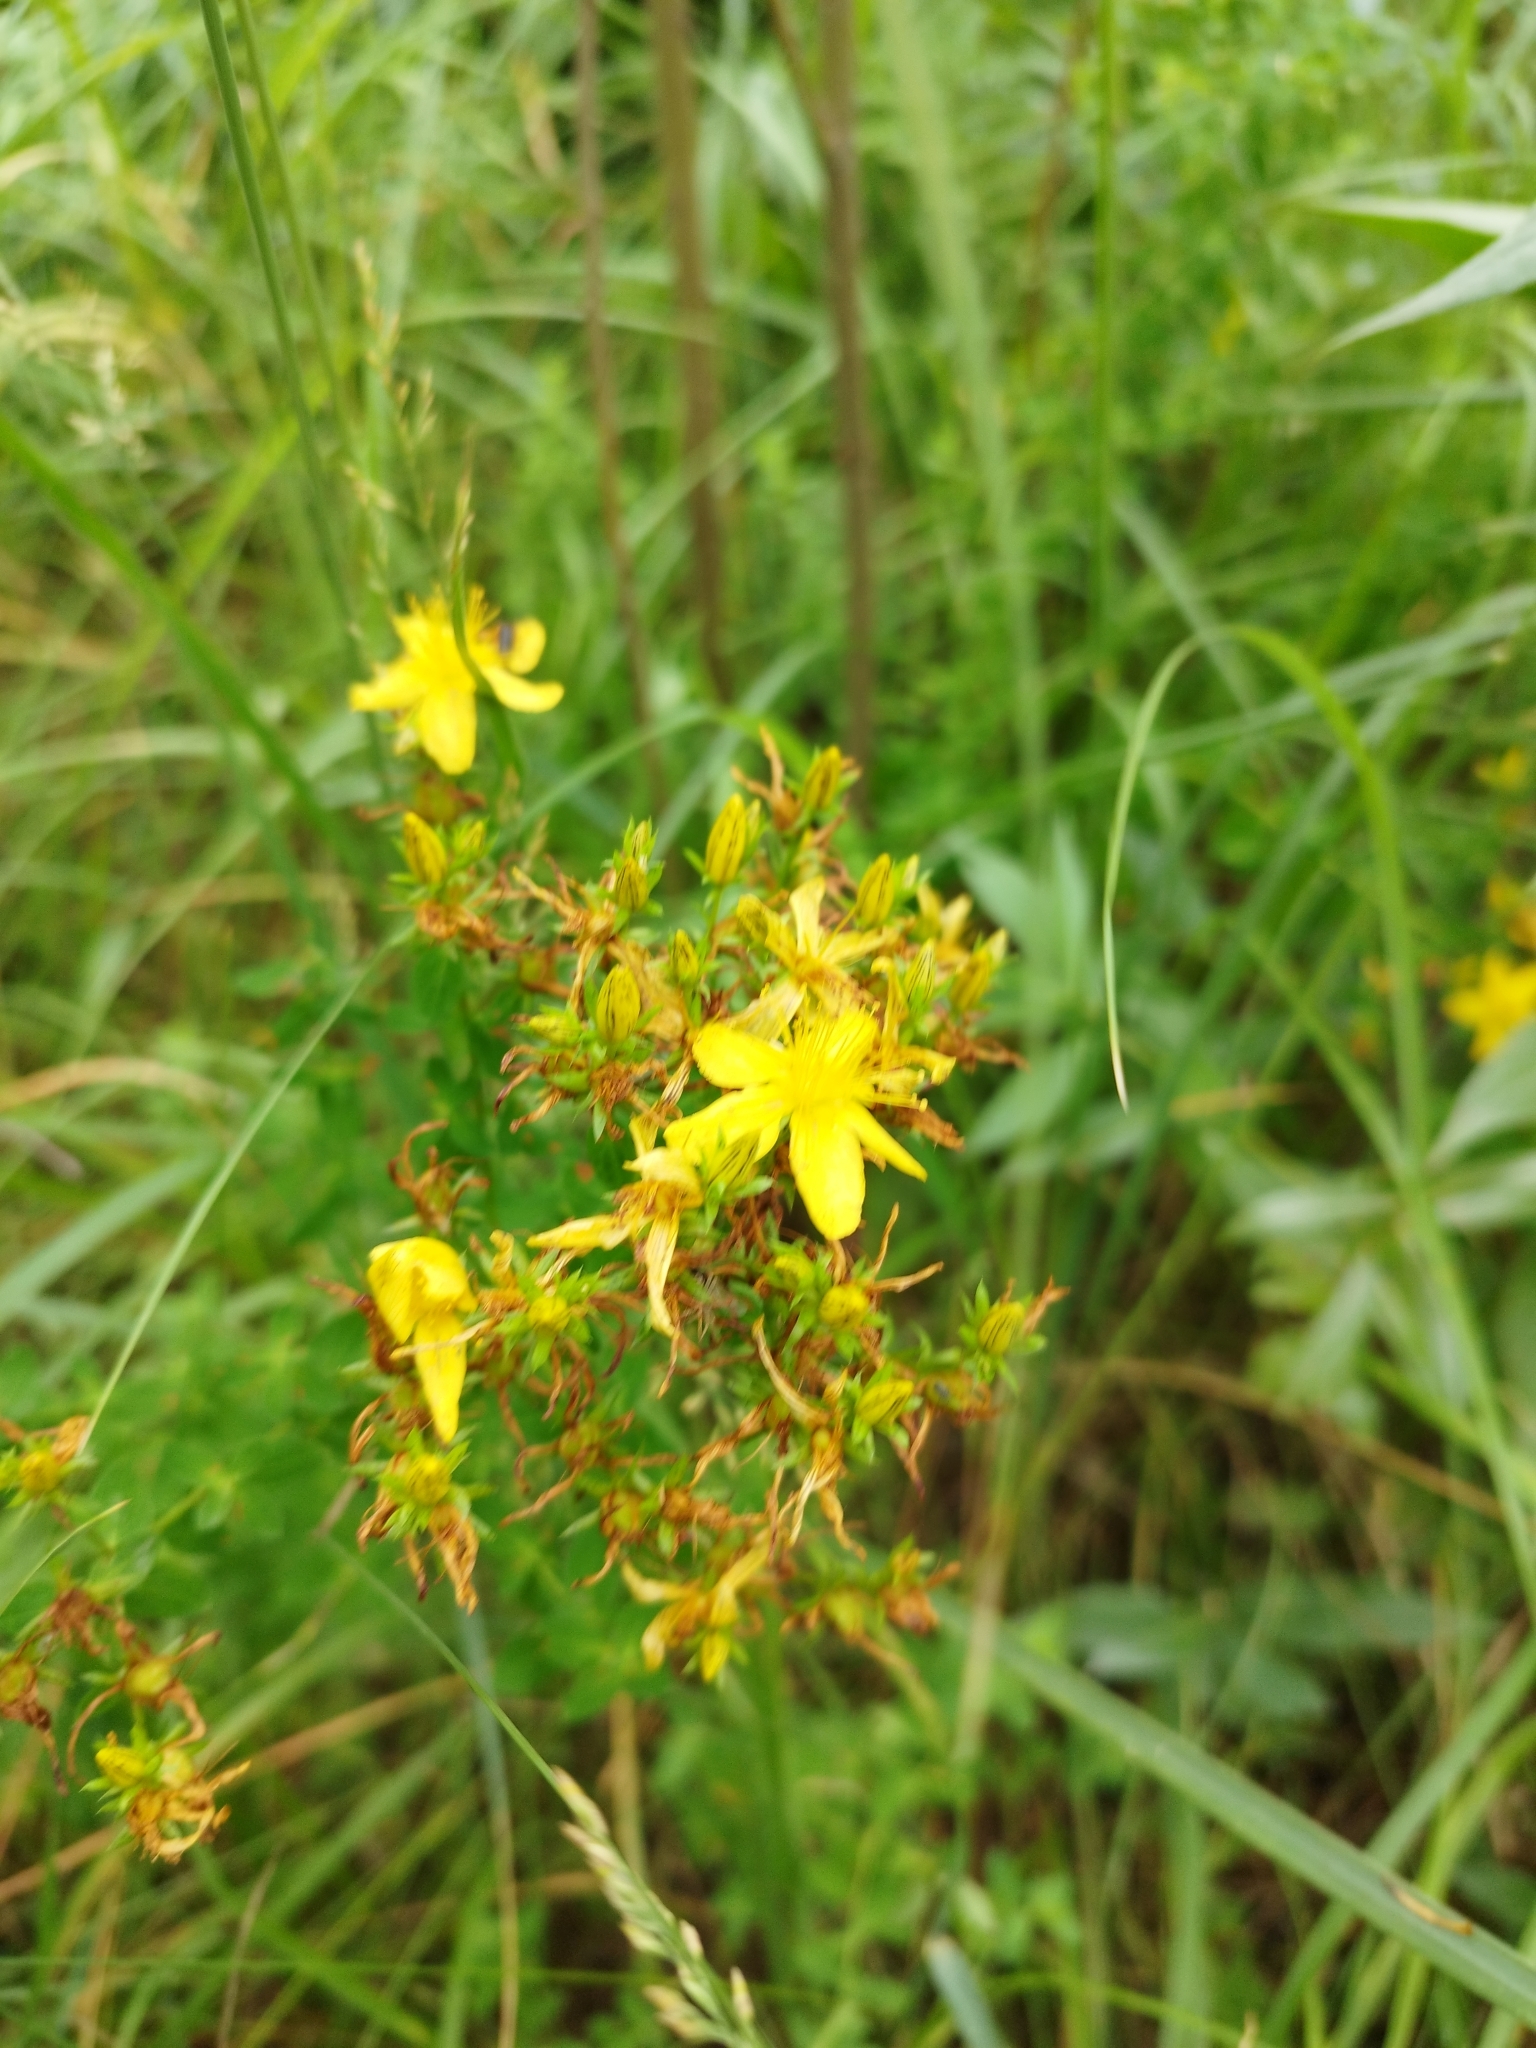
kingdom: Plantae
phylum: Tracheophyta
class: Magnoliopsida
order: Malpighiales
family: Hypericaceae
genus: Hypericum
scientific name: Hypericum perforatum
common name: Common st. johnswort
